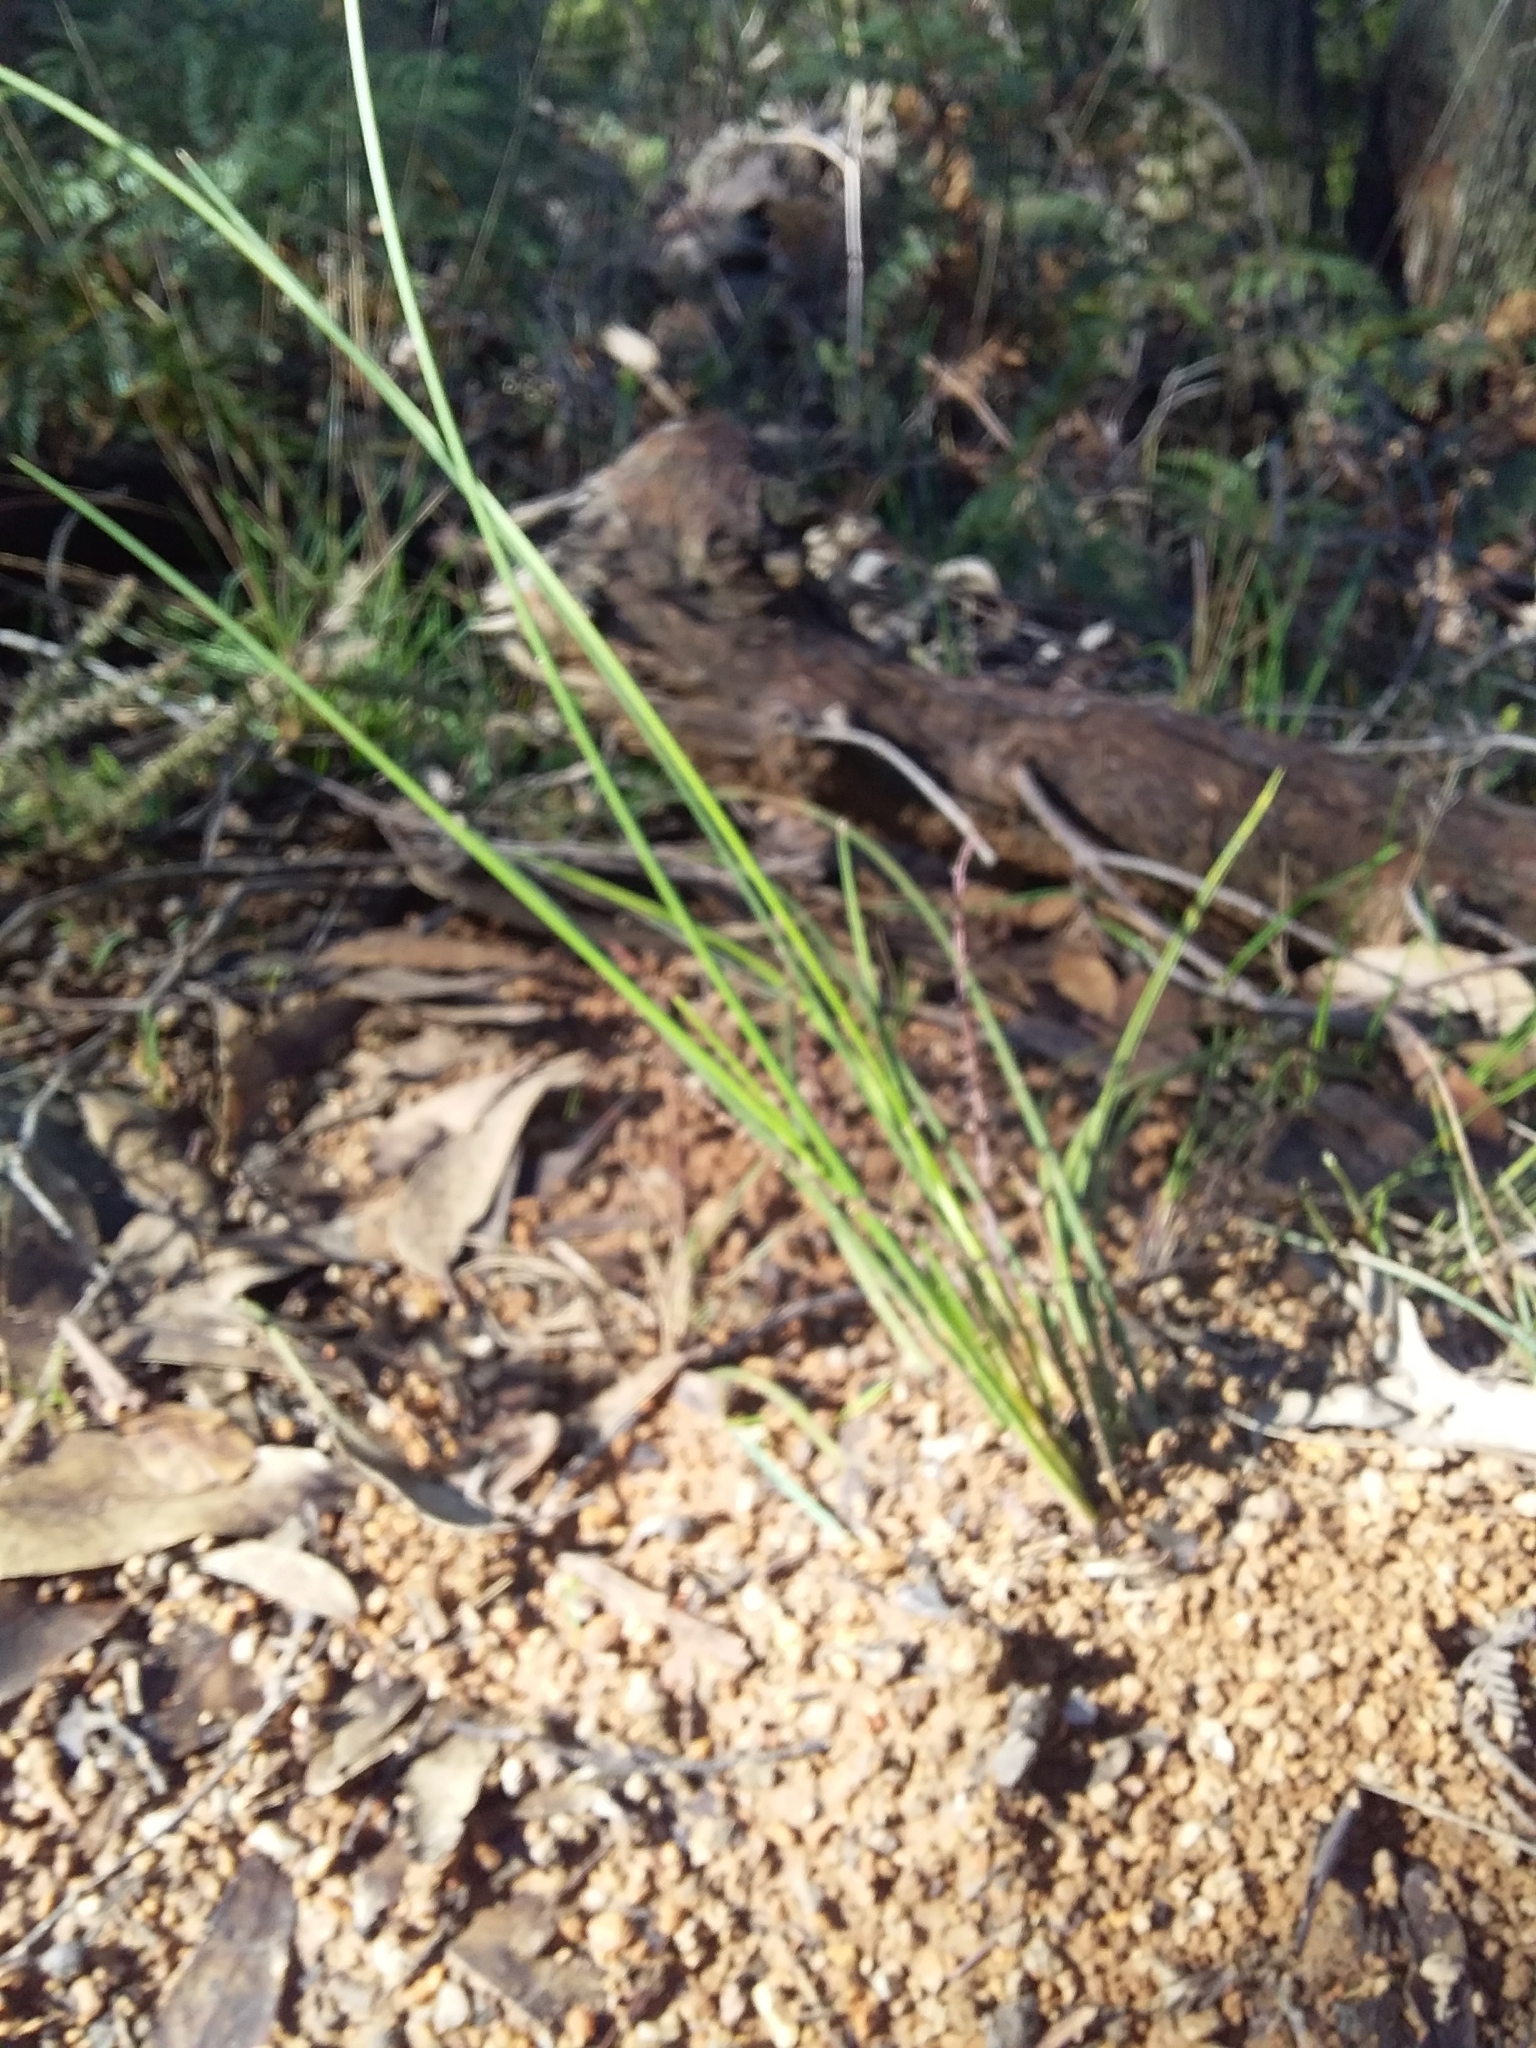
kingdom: Plantae
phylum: Tracheophyta
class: Liliopsida
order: Asparagales
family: Asparagaceae
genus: Lomandra
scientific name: Lomandra micrantha
